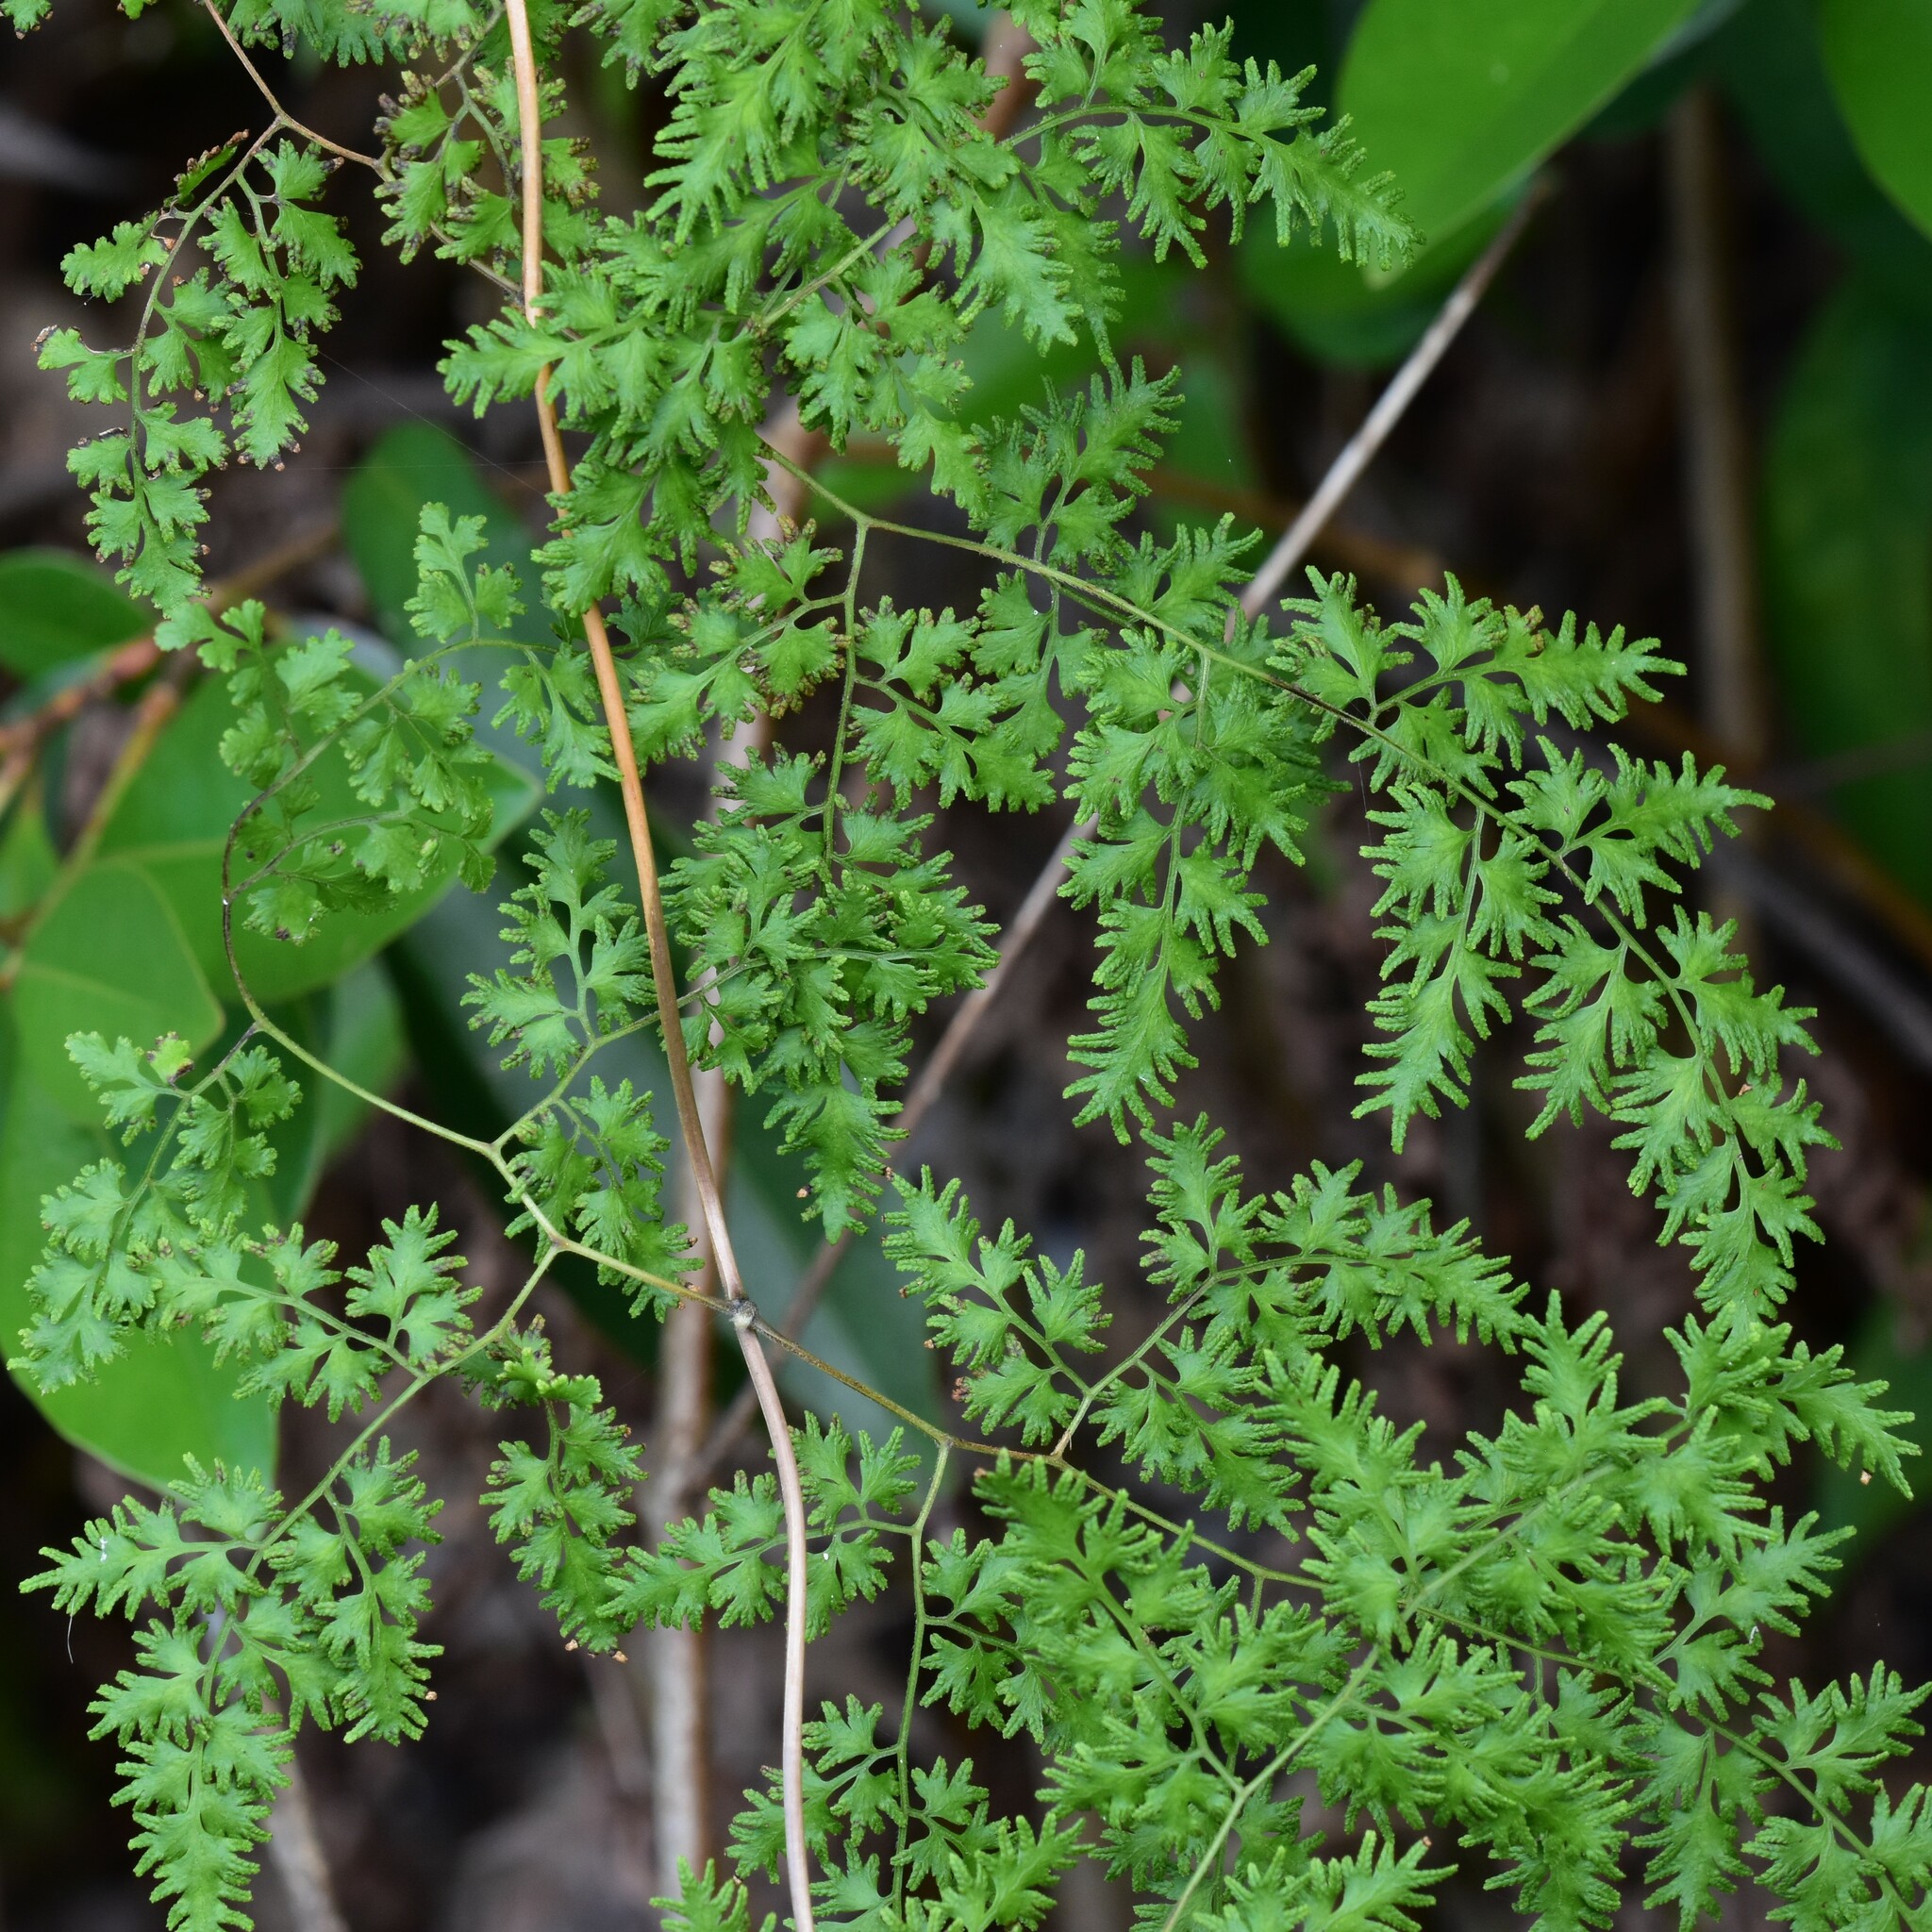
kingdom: Plantae
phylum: Tracheophyta
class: Polypodiopsida
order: Schizaeales
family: Lygodiaceae
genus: Lygodium
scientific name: Lygodium japonicum
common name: Japanese climbing fern
